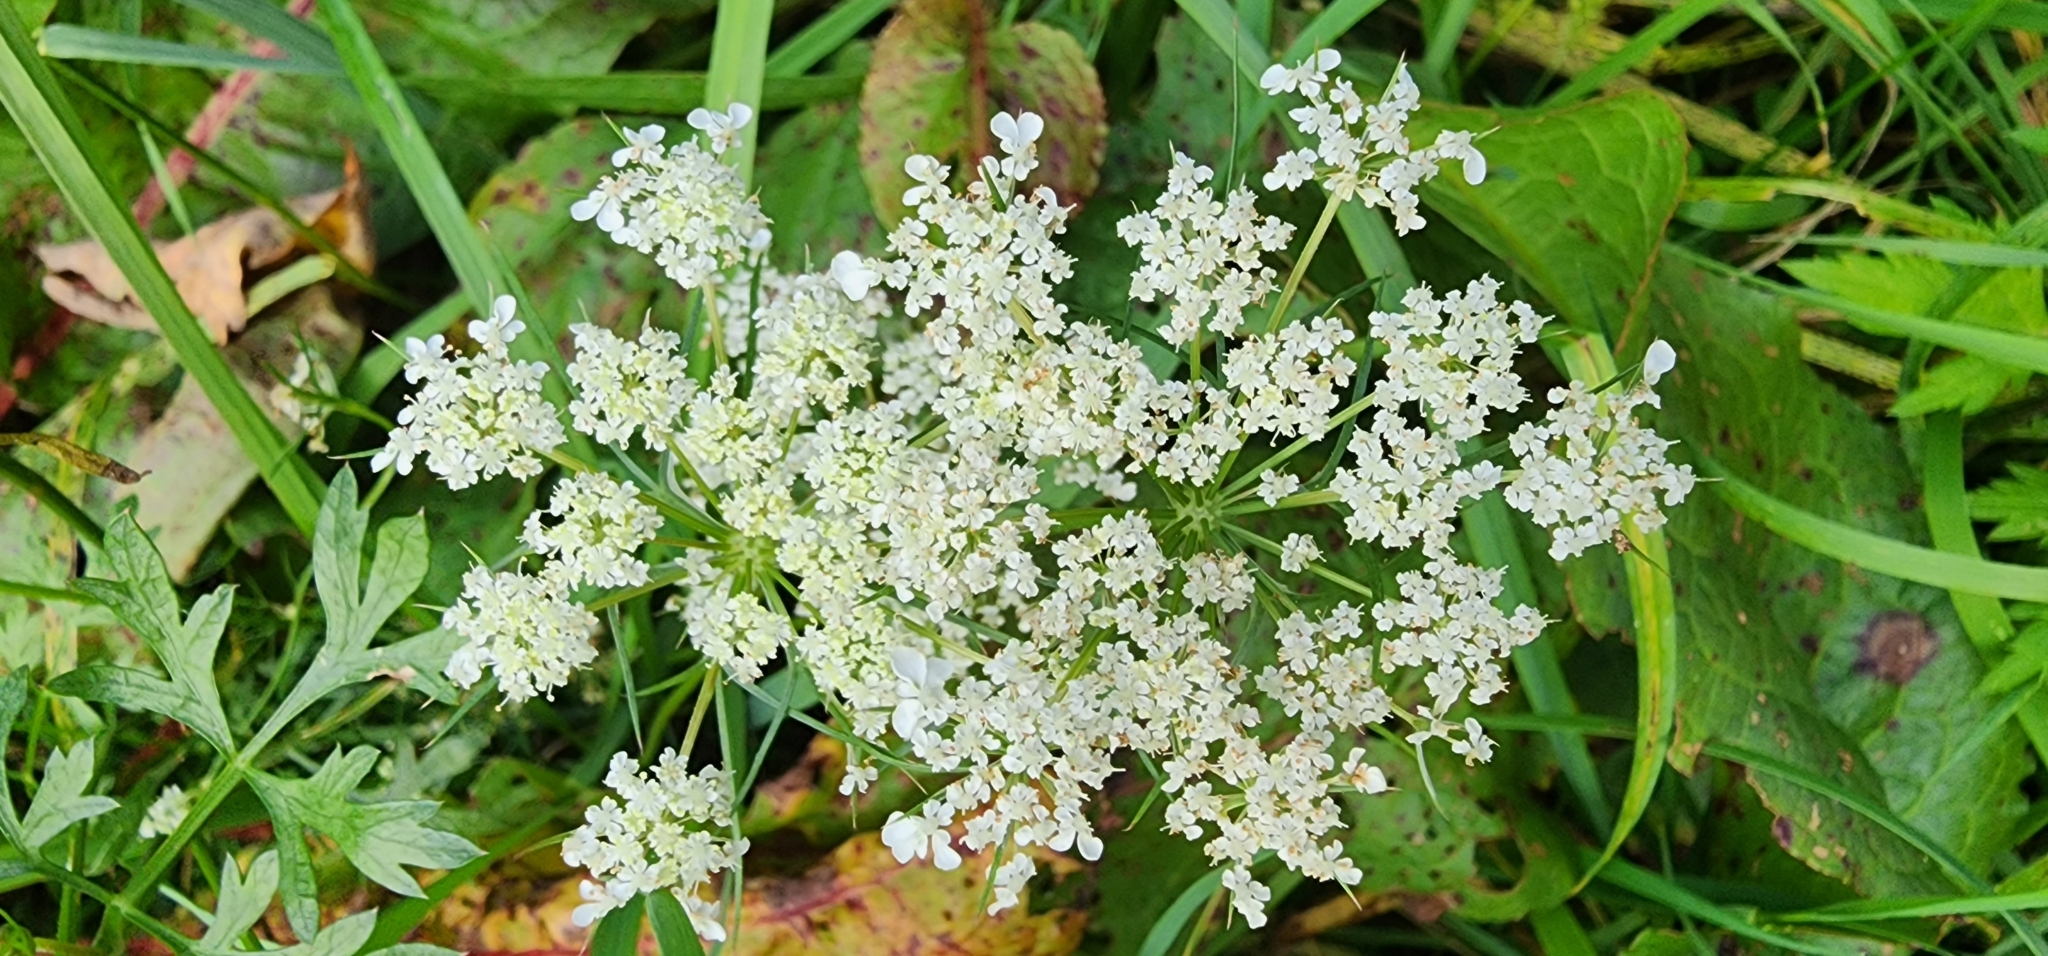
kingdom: Plantae
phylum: Tracheophyta
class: Magnoliopsida
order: Apiales
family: Apiaceae
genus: Daucus
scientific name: Daucus carota
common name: Wild carrot
